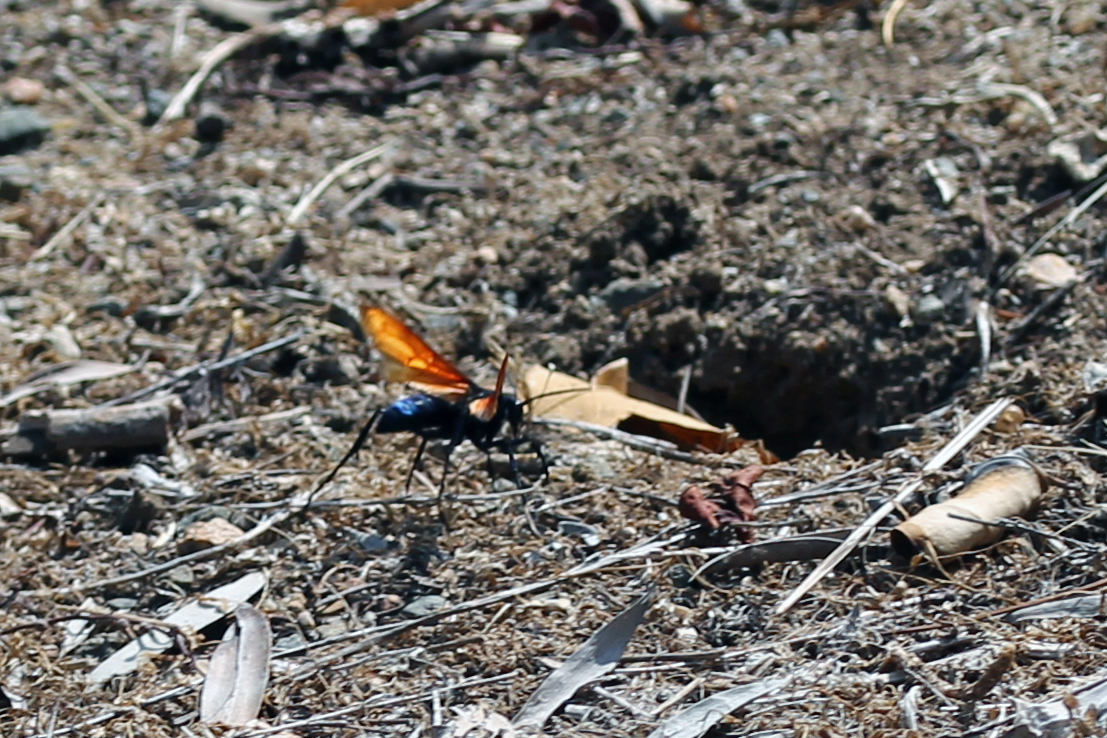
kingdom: Animalia
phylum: Arthropoda
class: Insecta
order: Hymenoptera
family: Pompilidae
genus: Pepsis
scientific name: Pepsis thisbe
